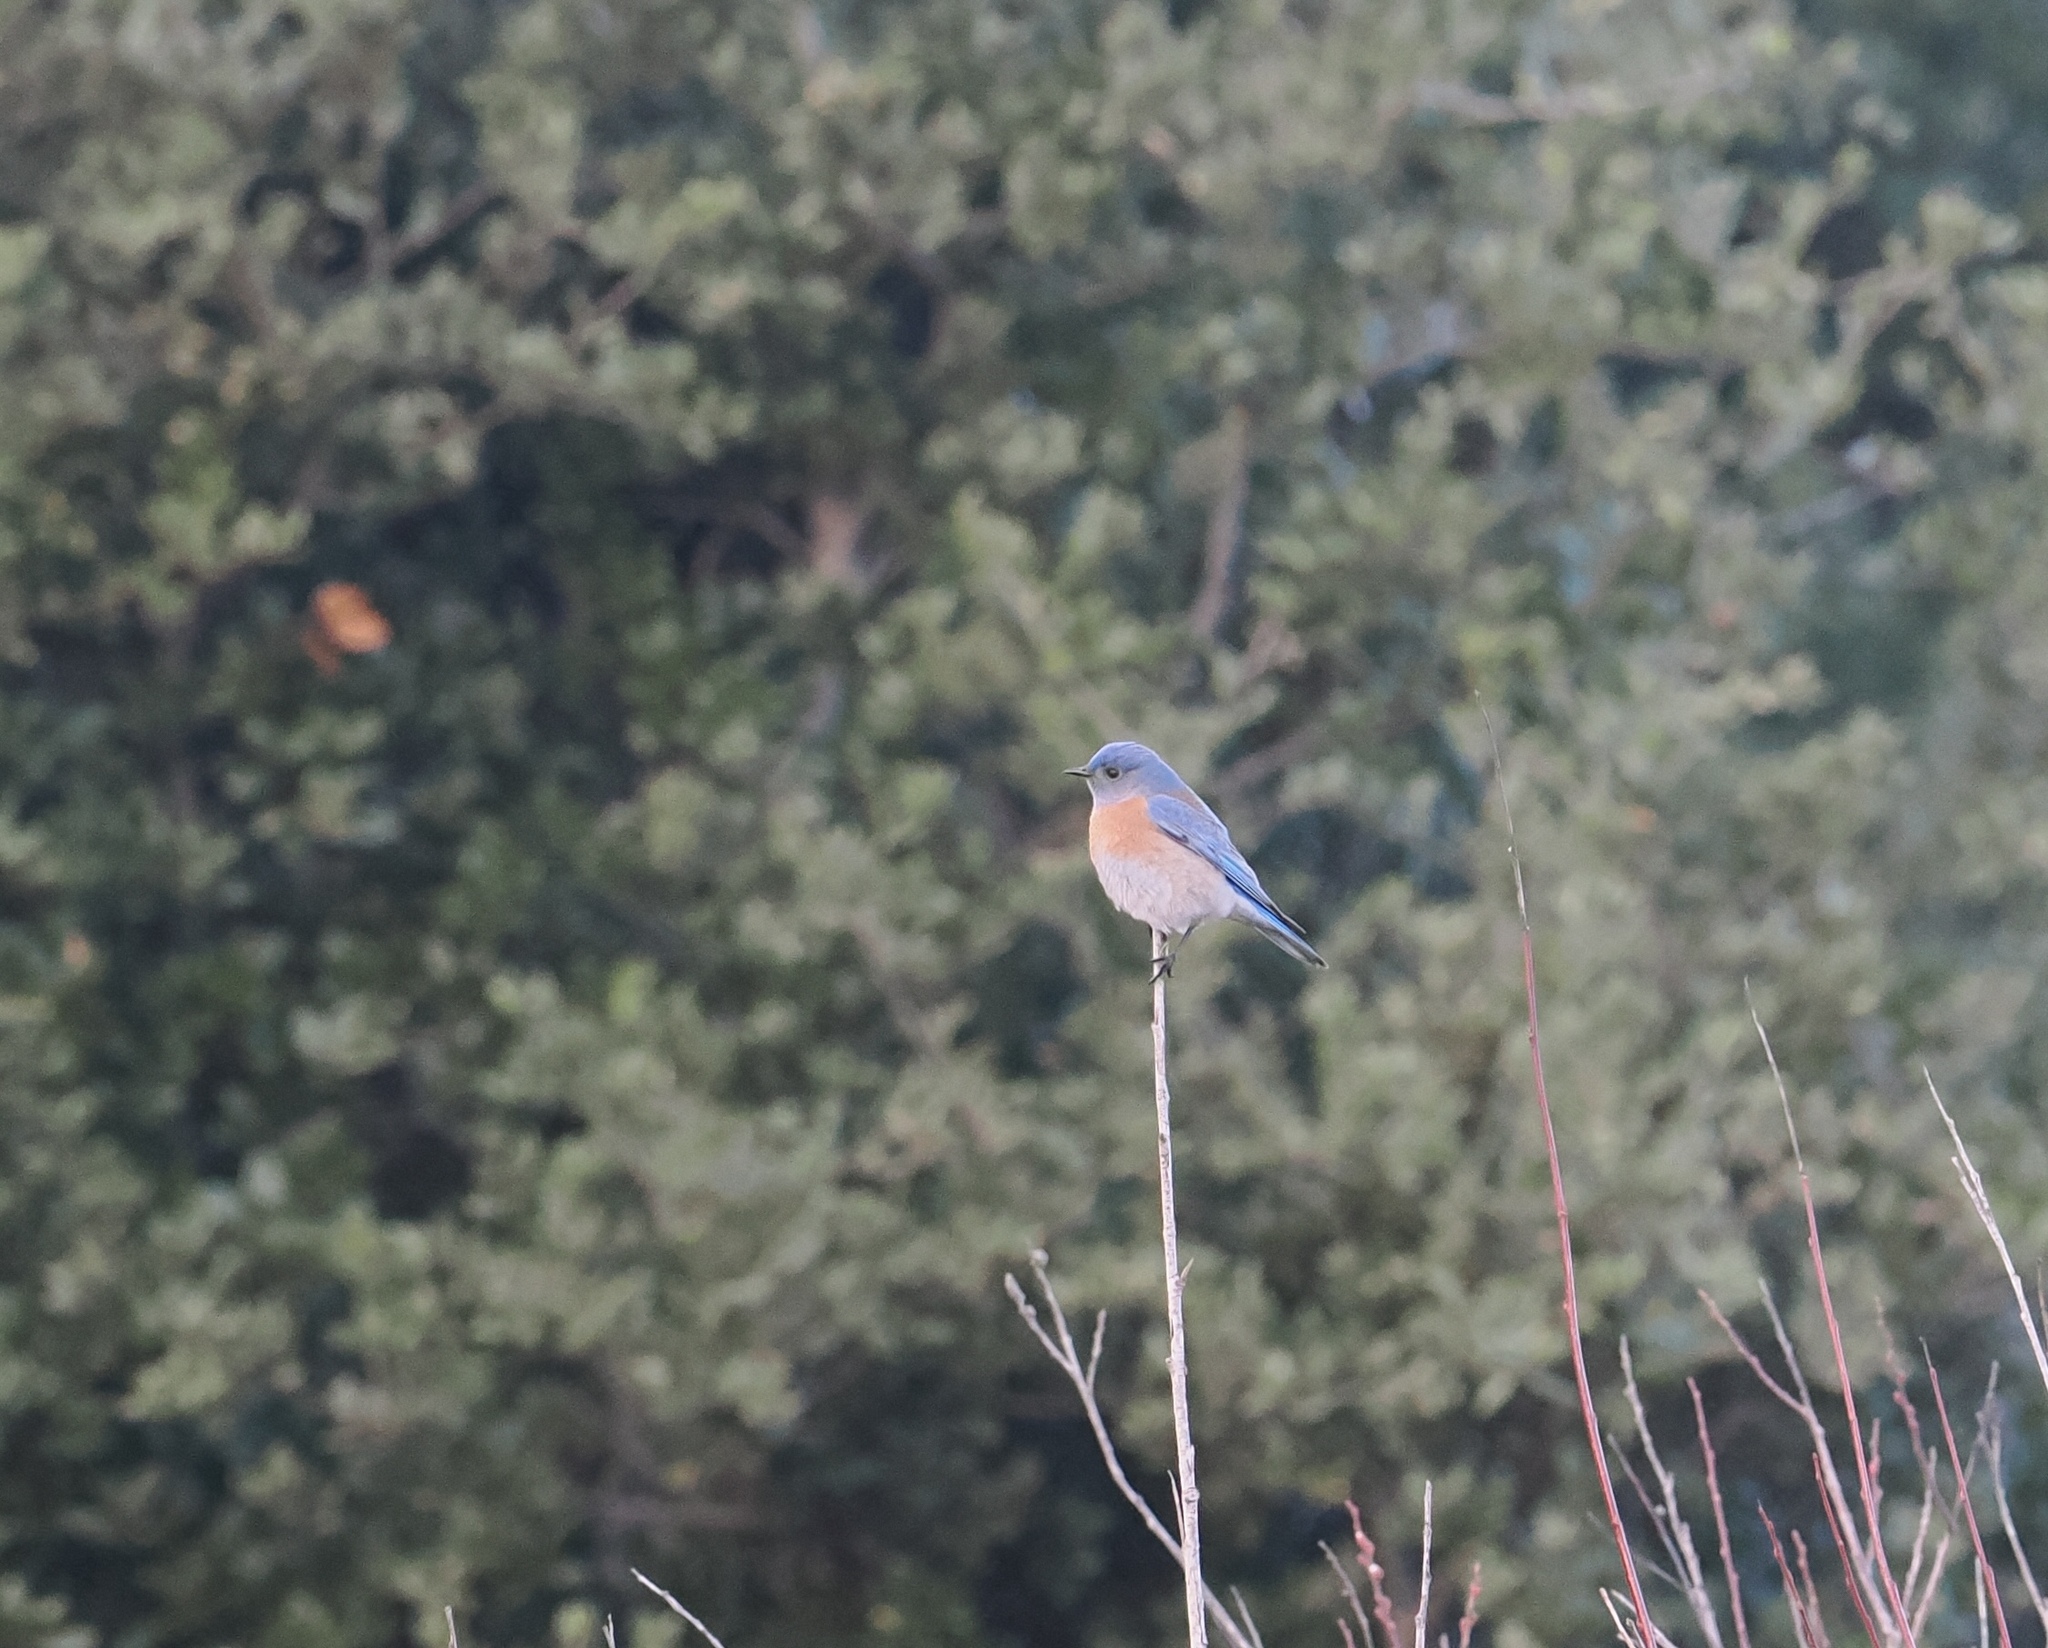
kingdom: Animalia
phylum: Chordata
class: Aves
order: Passeriformes
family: Turdidae
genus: Sialia
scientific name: Sialia mexicana
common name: Western bluebird
